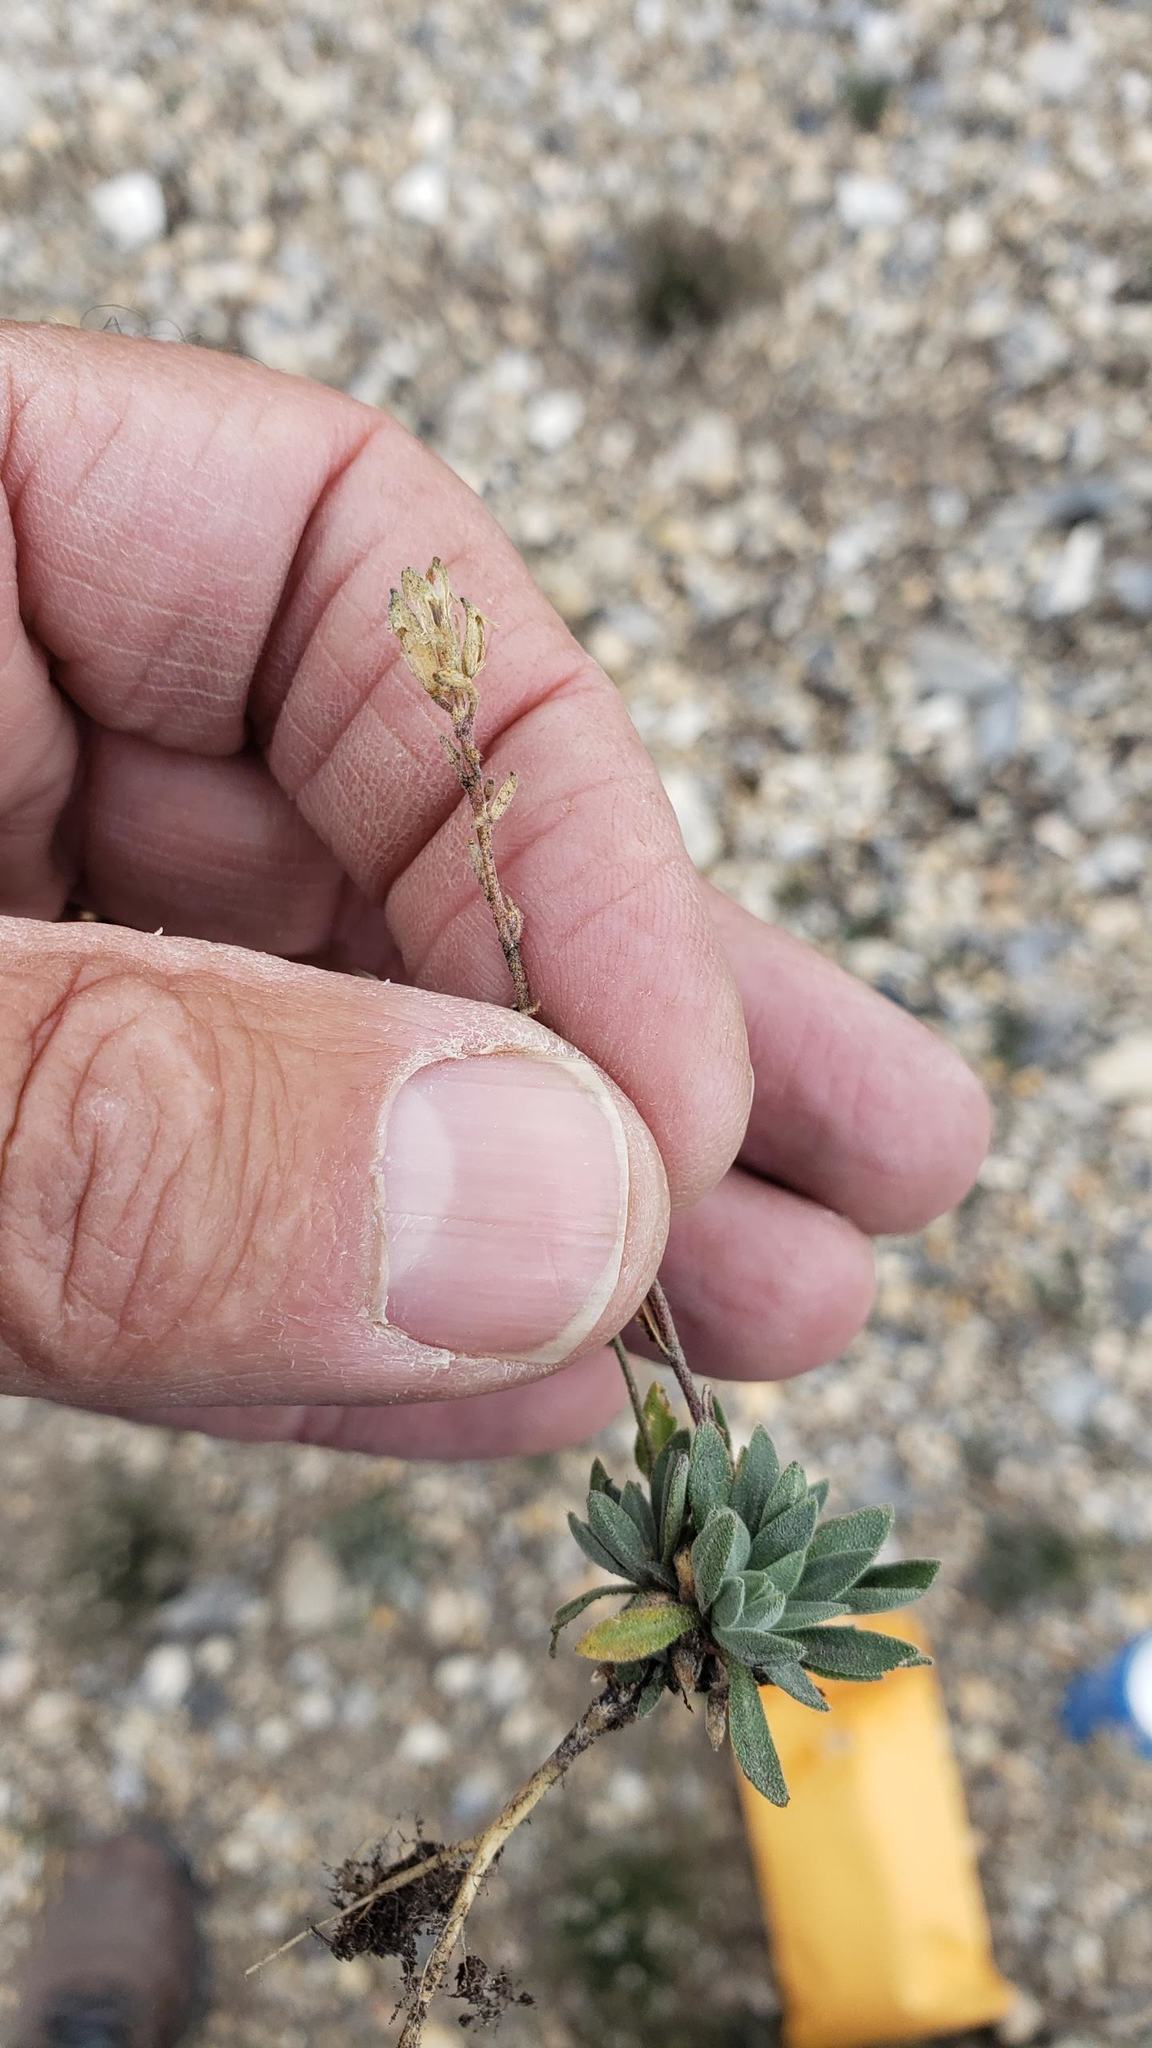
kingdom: Plantae
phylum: Tracheophyta
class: Magnoliopsida
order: Brassicales
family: Brassicaceae
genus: Braya
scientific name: Braya glabella
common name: Smooth braya
